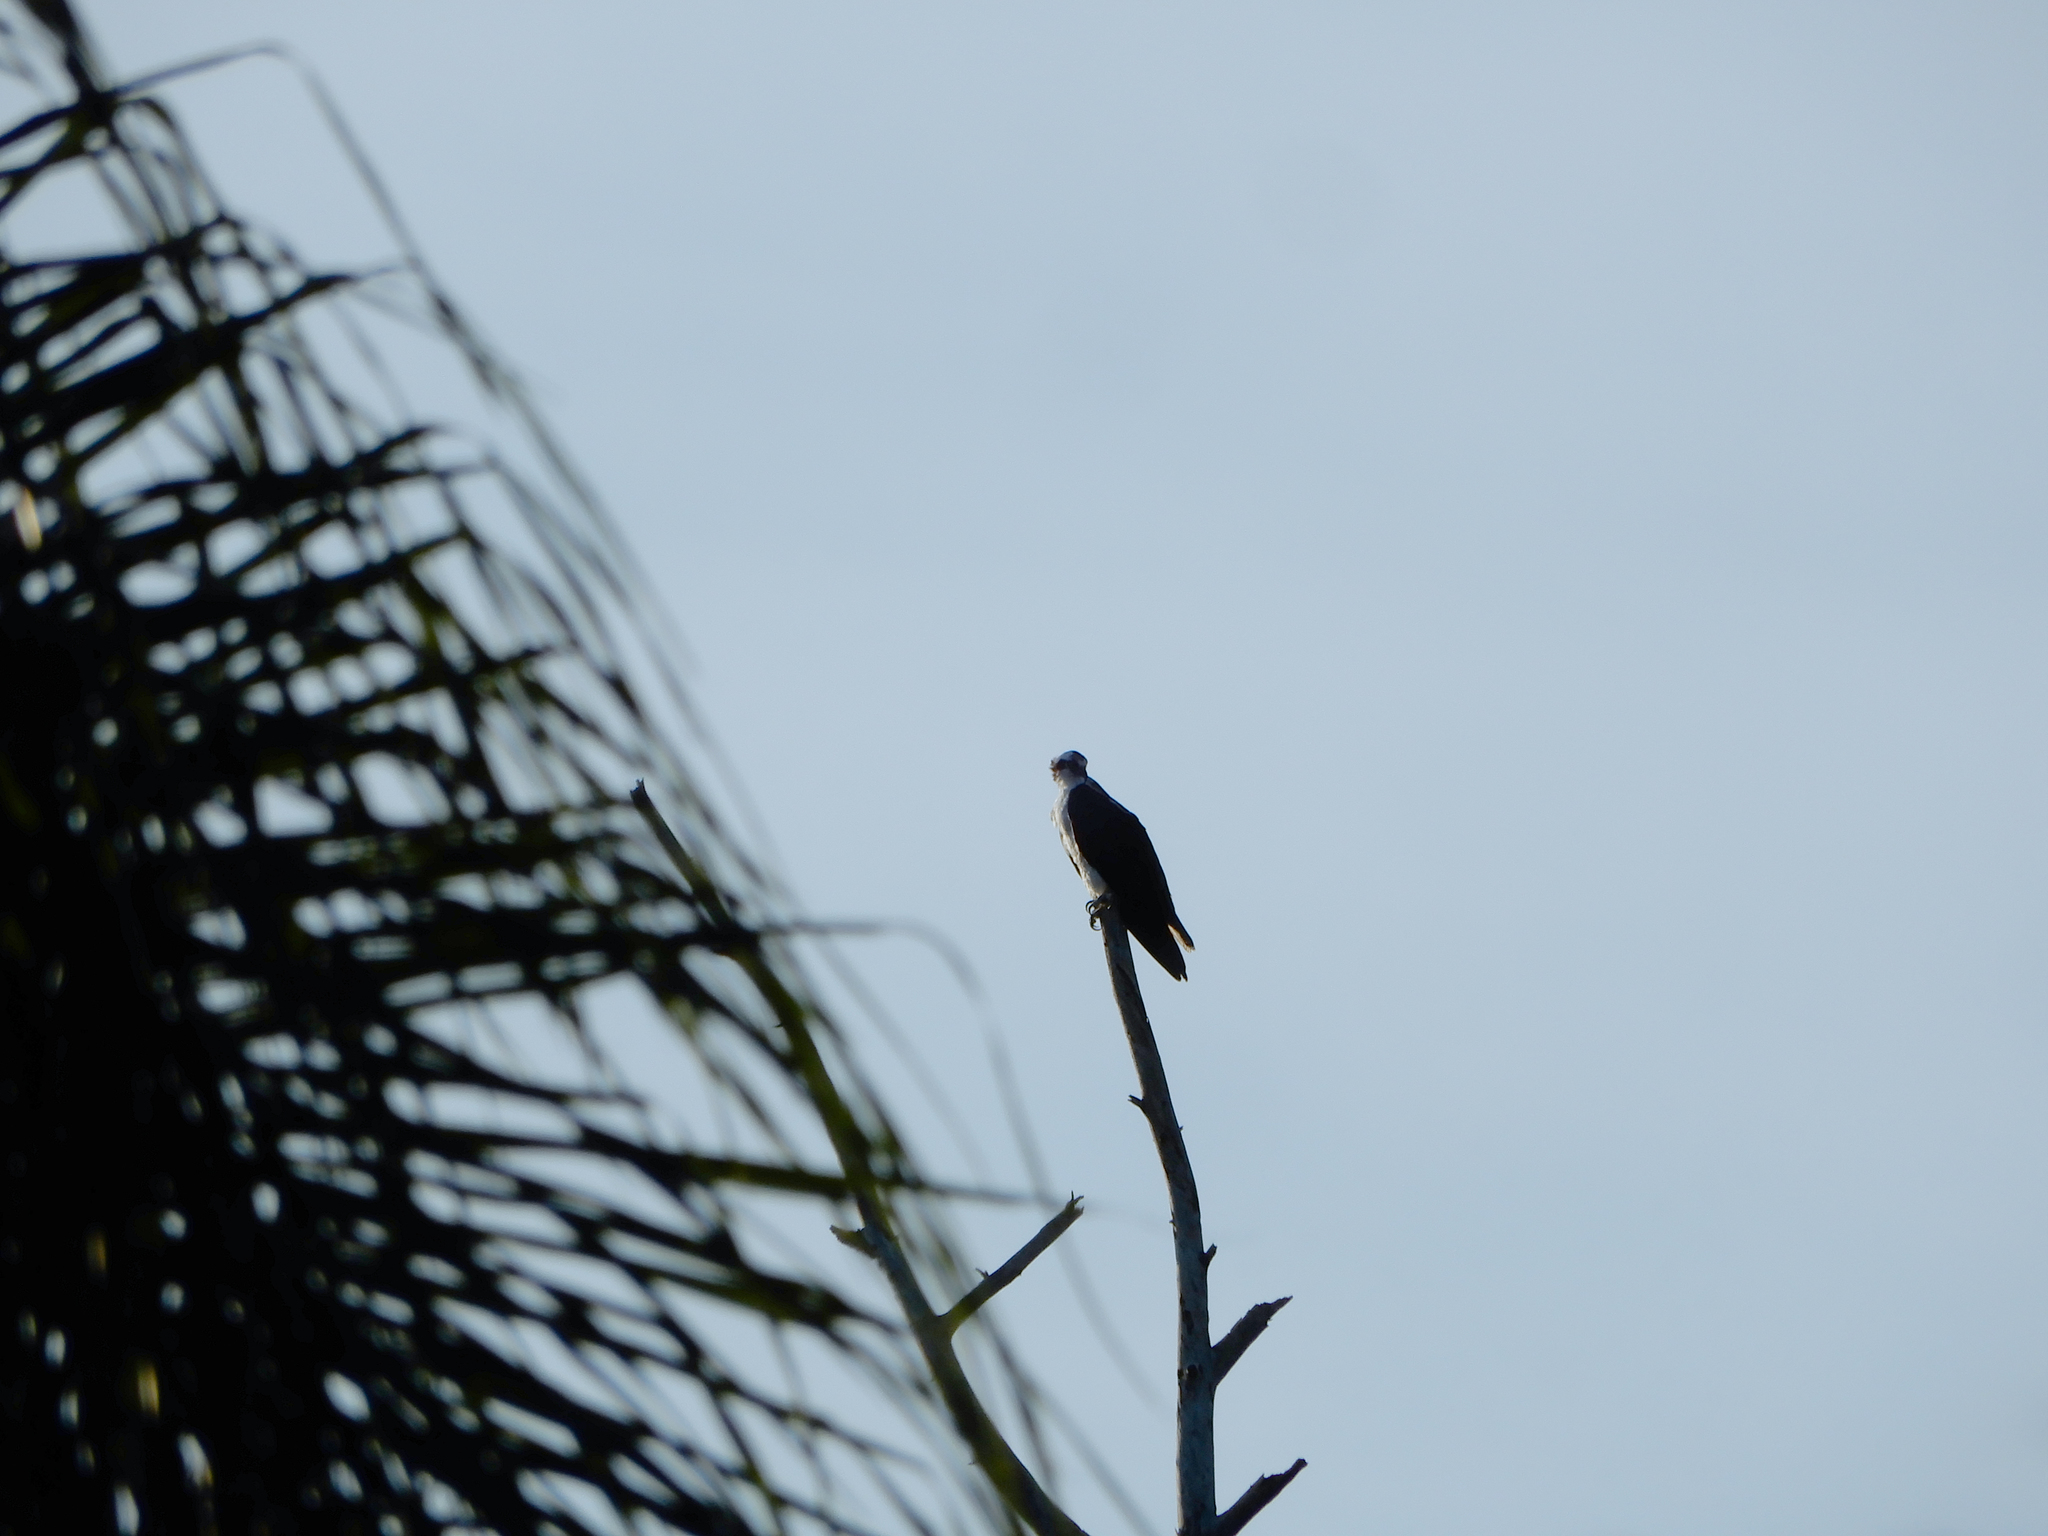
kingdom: Animalia
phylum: Chordata
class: Aves
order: Accipitriformes
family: Pandionidae
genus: Pandion
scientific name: Pandion haliaetus
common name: Osprey
